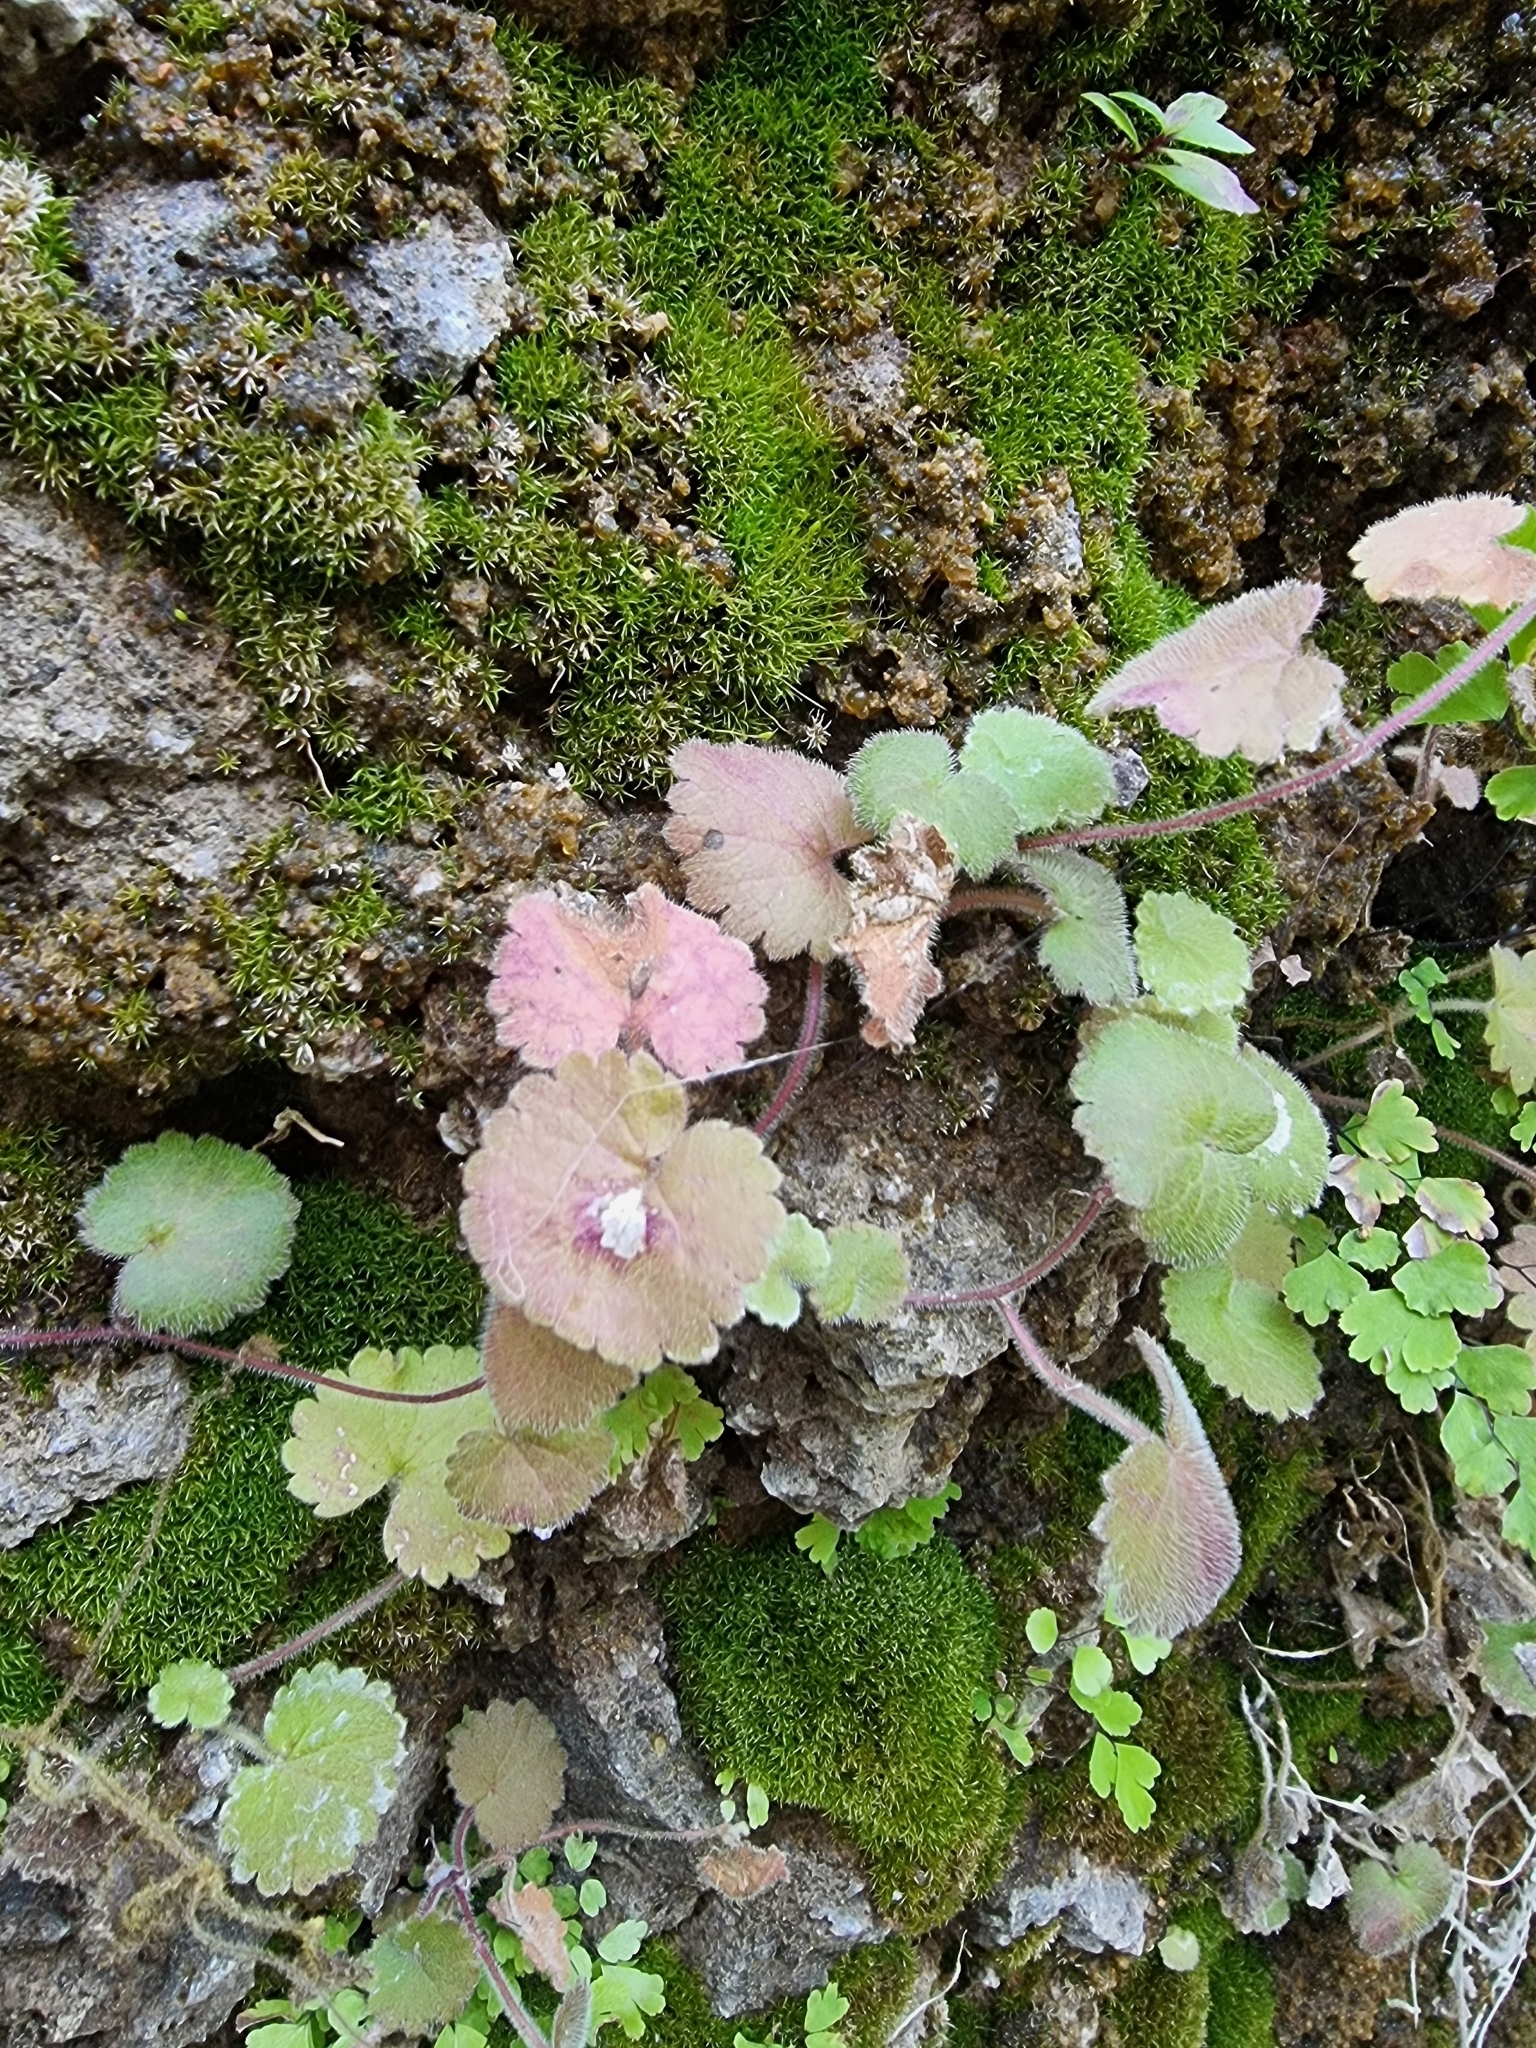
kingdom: Plantae
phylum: Tracheophyta
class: Magnoliopsida
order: Lamiales
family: Plantaginaceae
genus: Sibthorpia
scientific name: Sibthorpia peregrina
